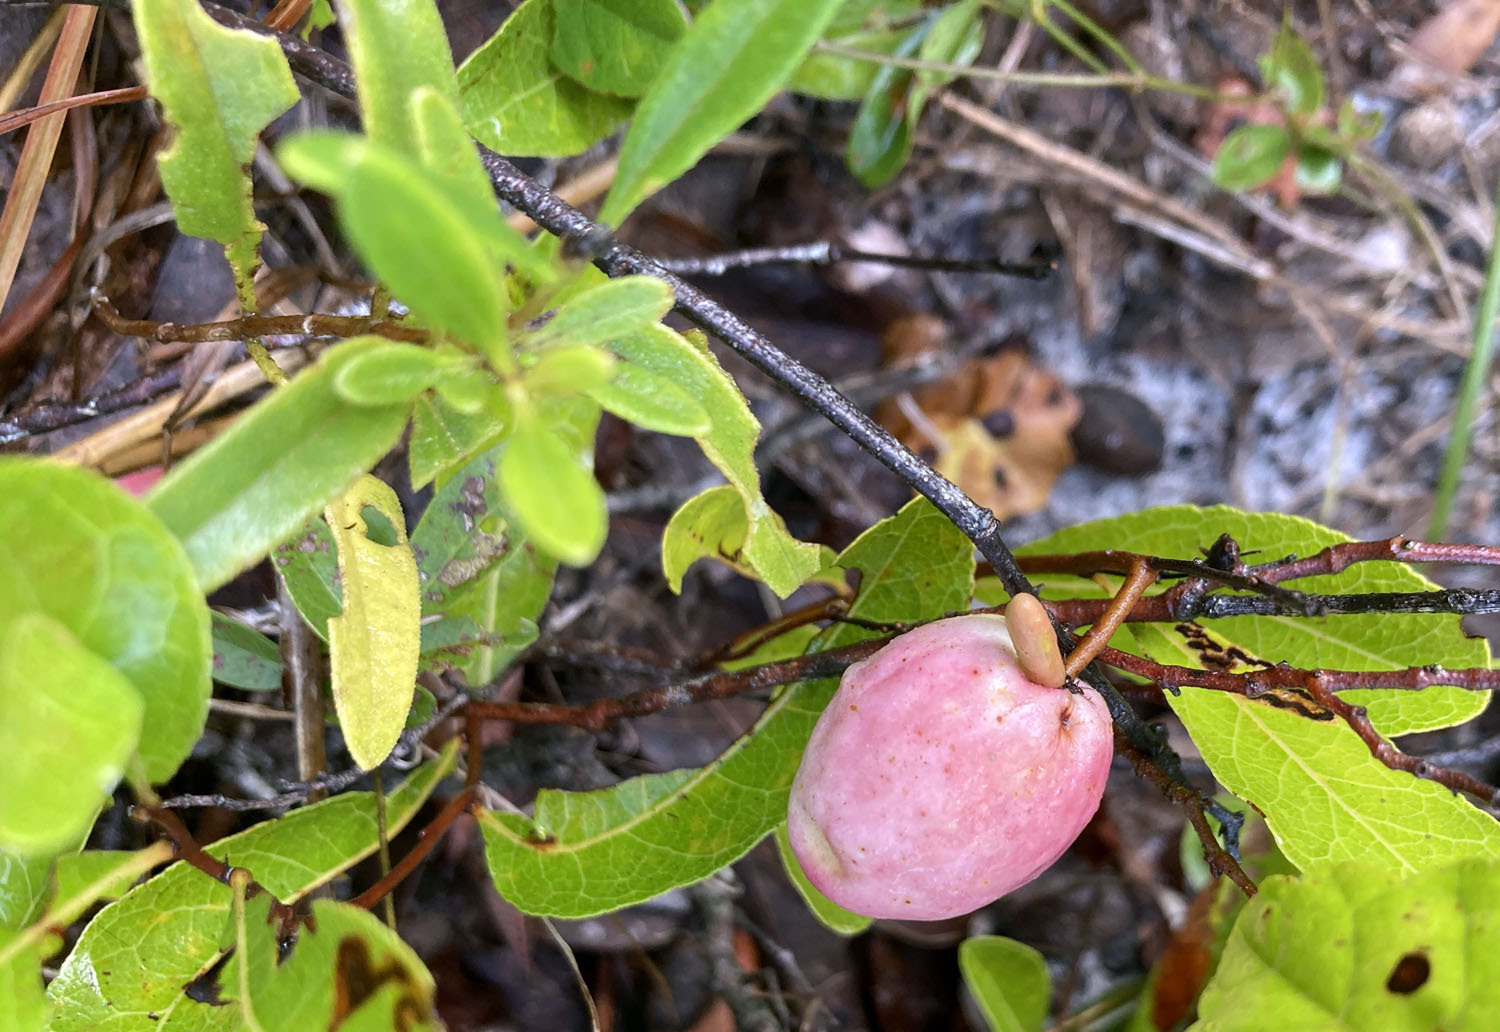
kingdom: Plantae
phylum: Tracheophyta
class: Magnoliopsida
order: Malpighiales
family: Chrysobalanaceae
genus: Geobalanus
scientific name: Geobalanus oblongifolius
